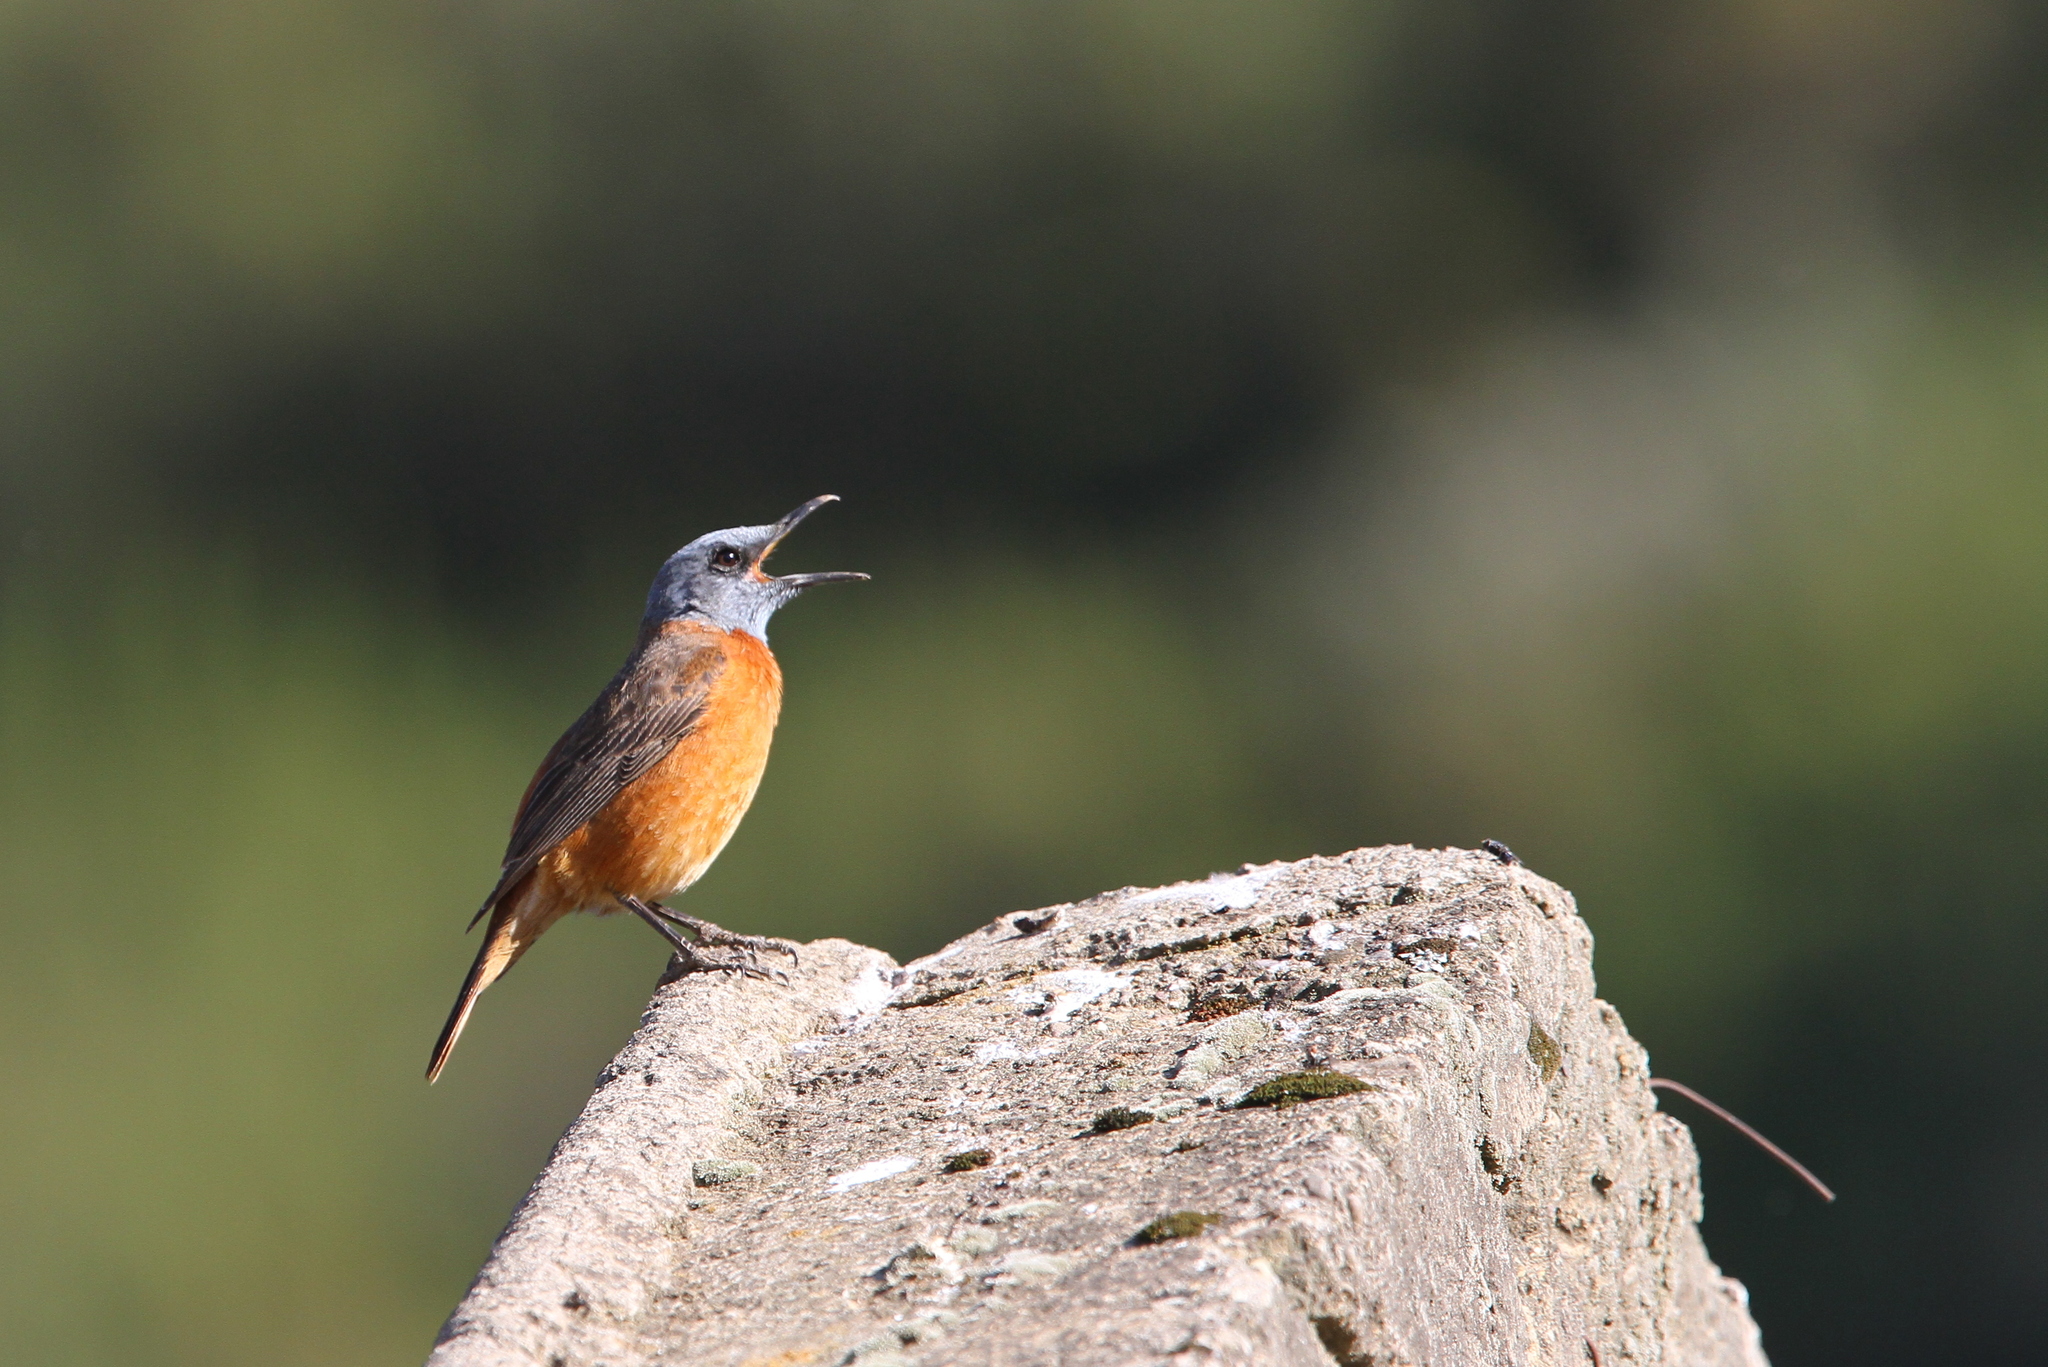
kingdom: Animalia
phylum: Chordata
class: Aves
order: Passeriformes
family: Muscicapidae
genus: Monticola
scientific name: Monticola rupestris
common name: Cape rock thrush
